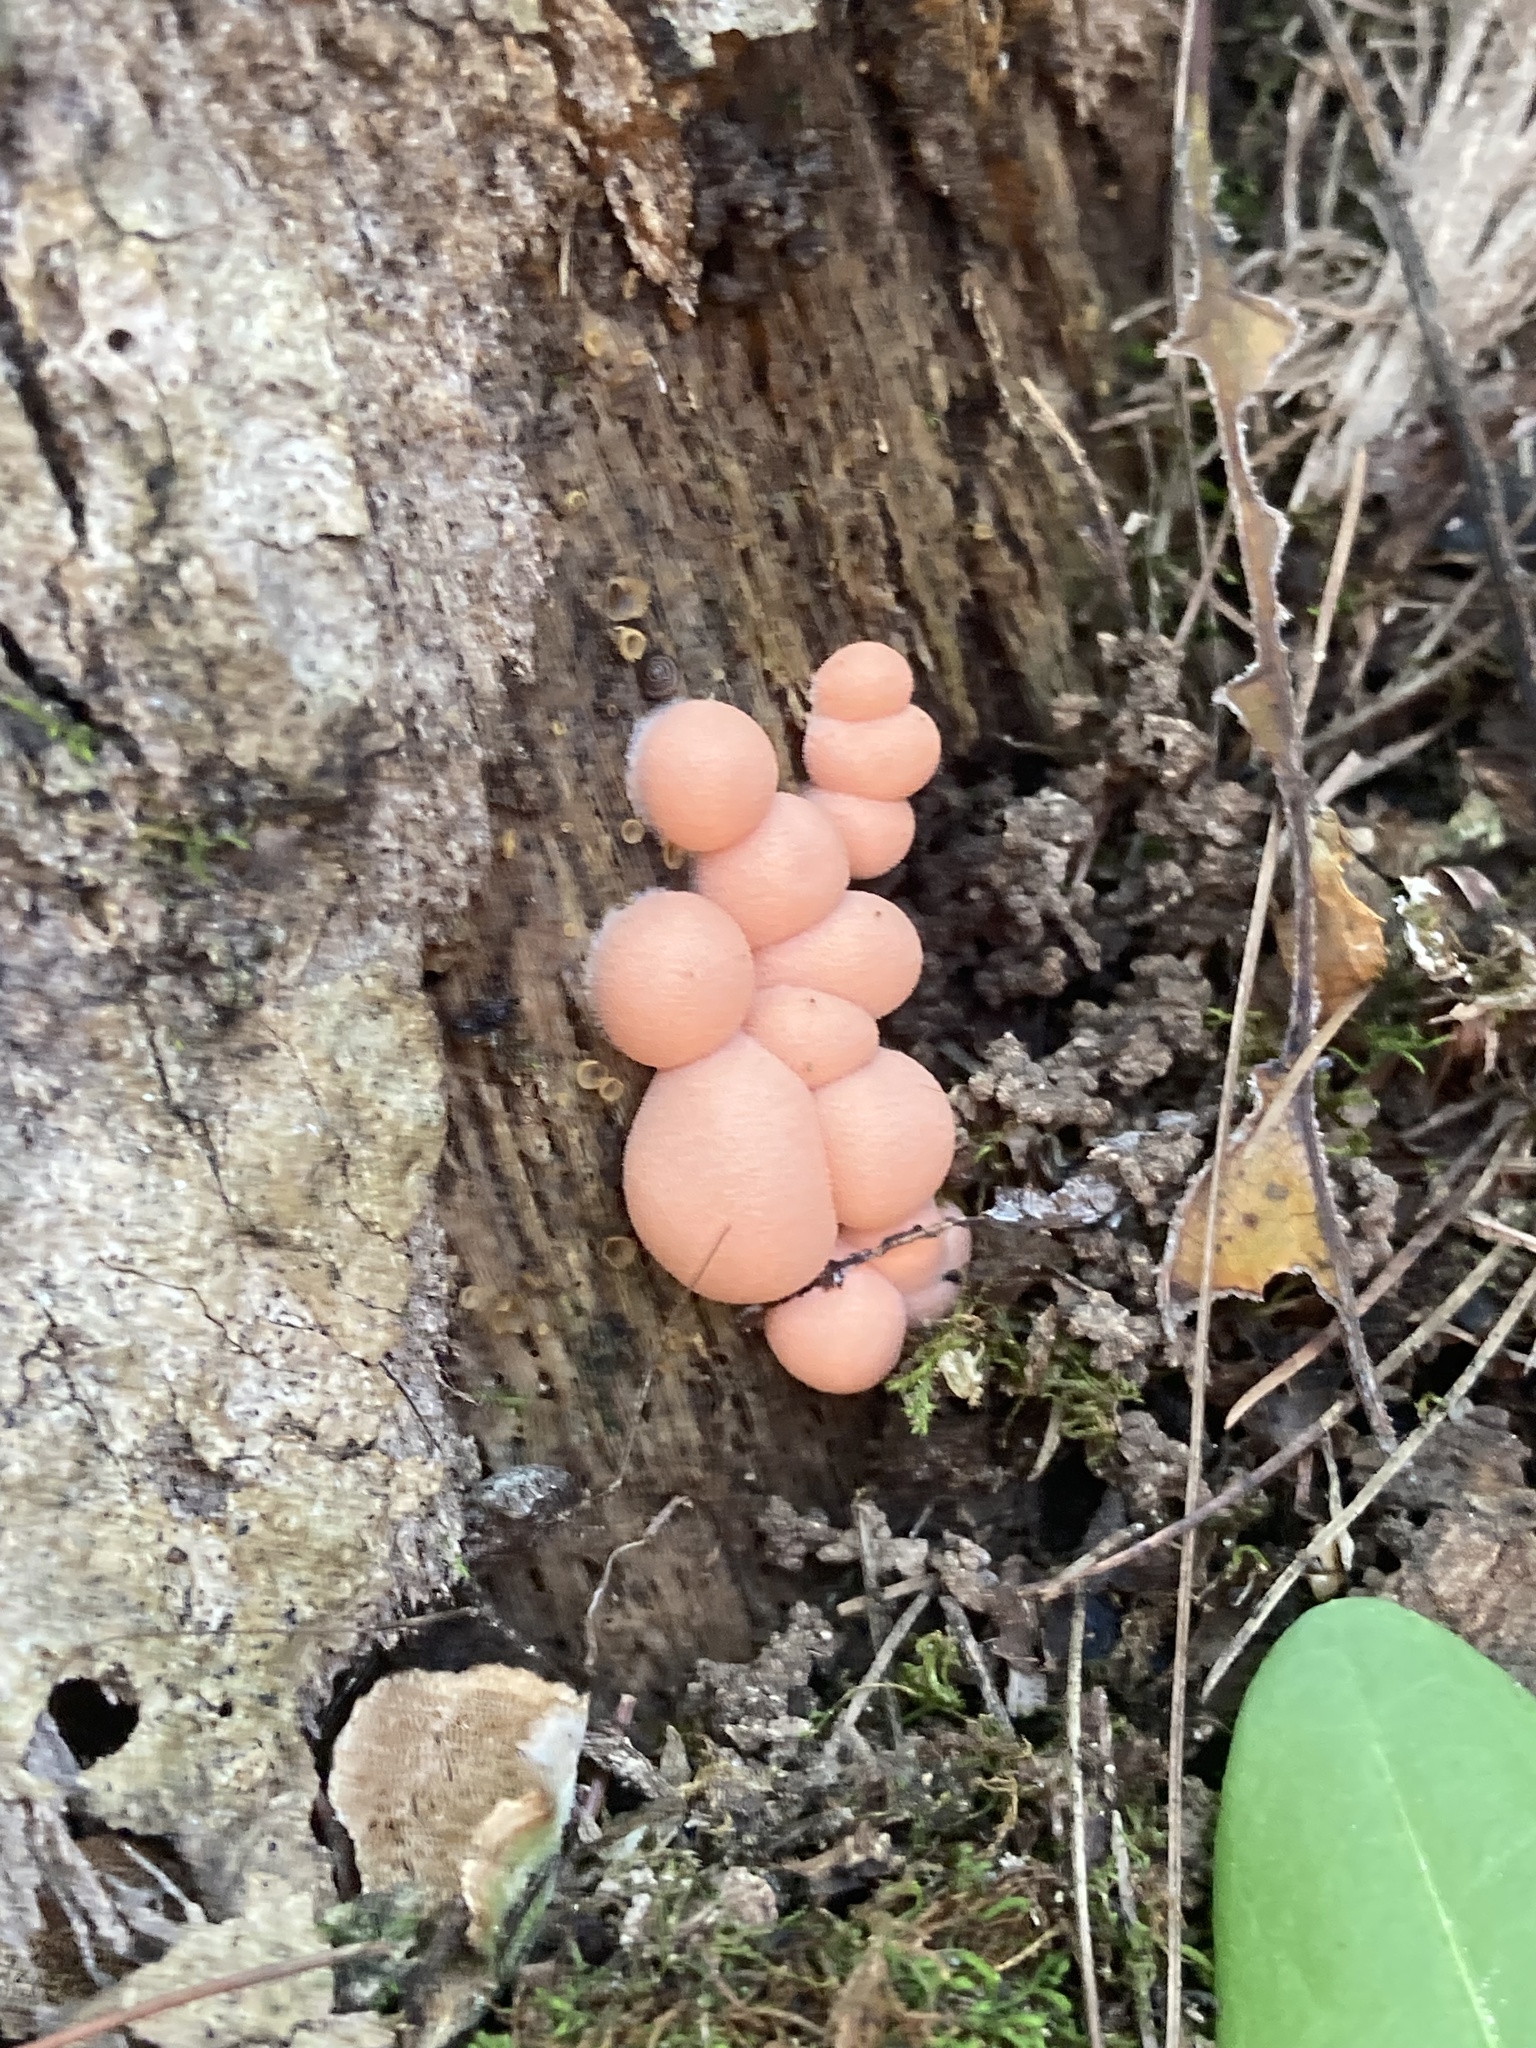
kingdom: Protozoa
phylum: Mycetozoa
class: Myxomycetes
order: Cribrariales
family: Tubiferaceae
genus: Lycogala
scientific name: Lycogala epidendrum
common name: Wolf's milk
